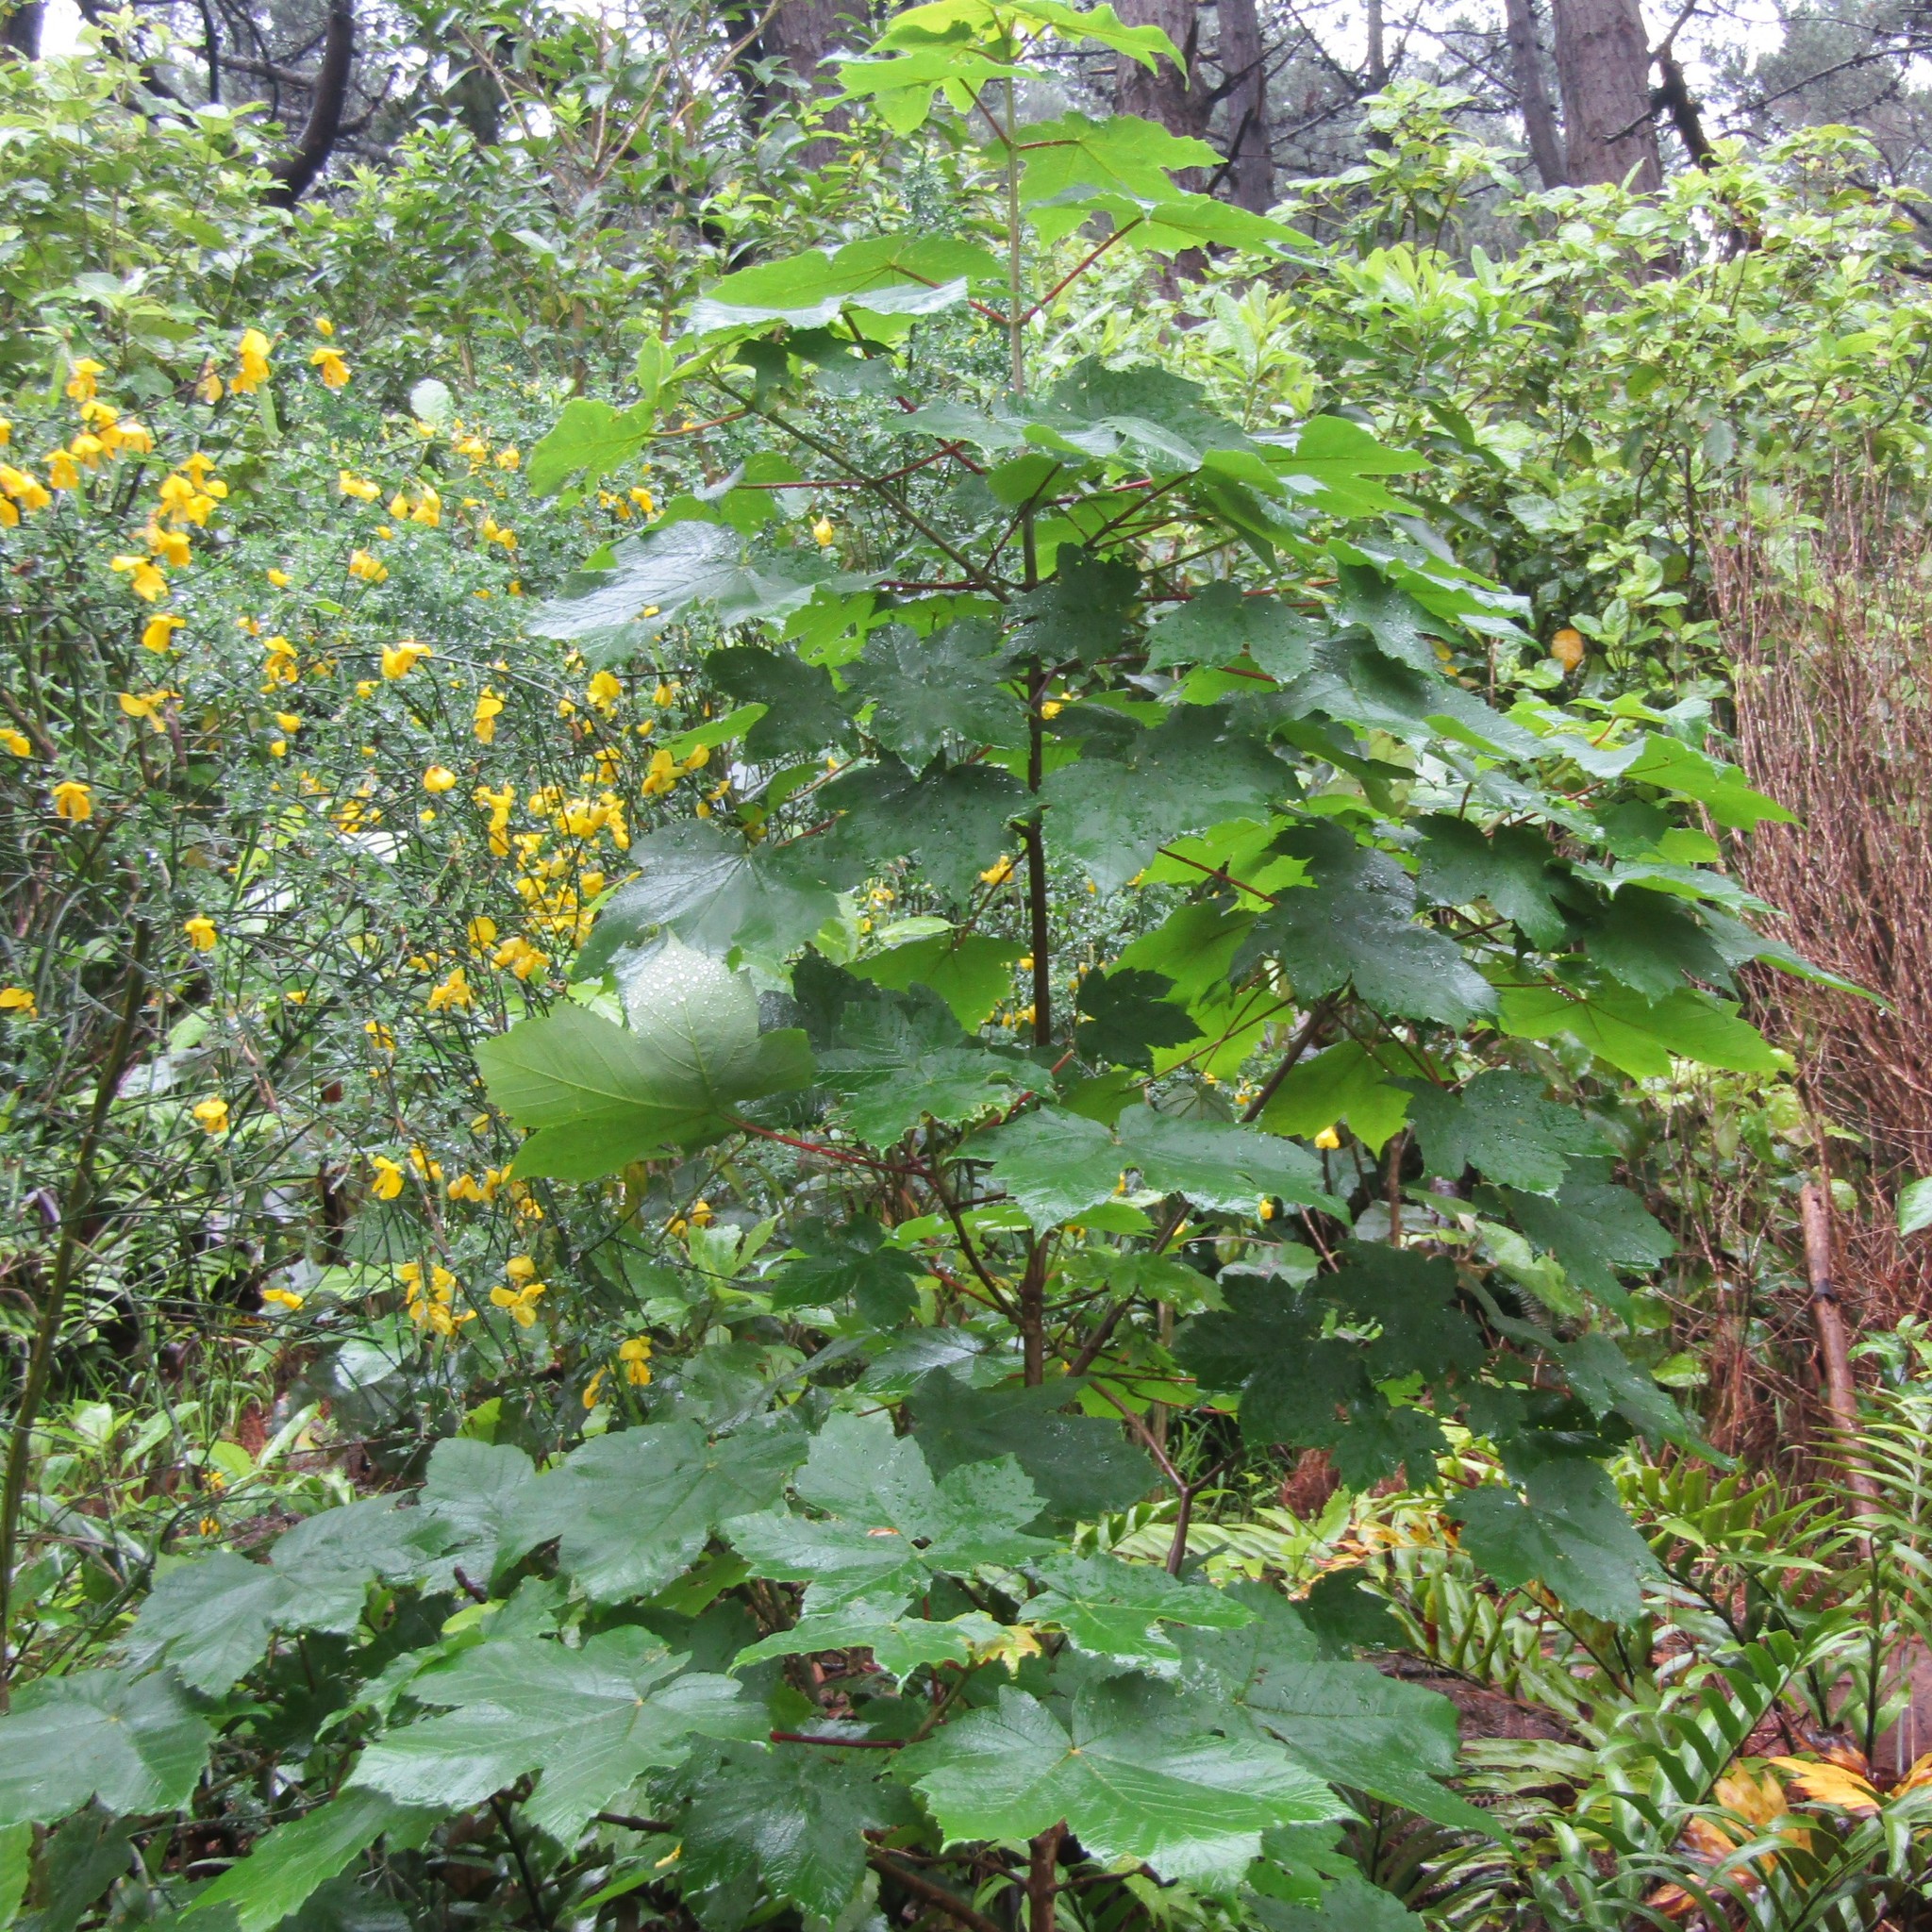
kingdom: Plantae
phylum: Tracheophyta
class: Magnoliopsida
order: Sapindales
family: Sapindaceae
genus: Acer
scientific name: Acer pseudoplatanus
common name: Sycamore
